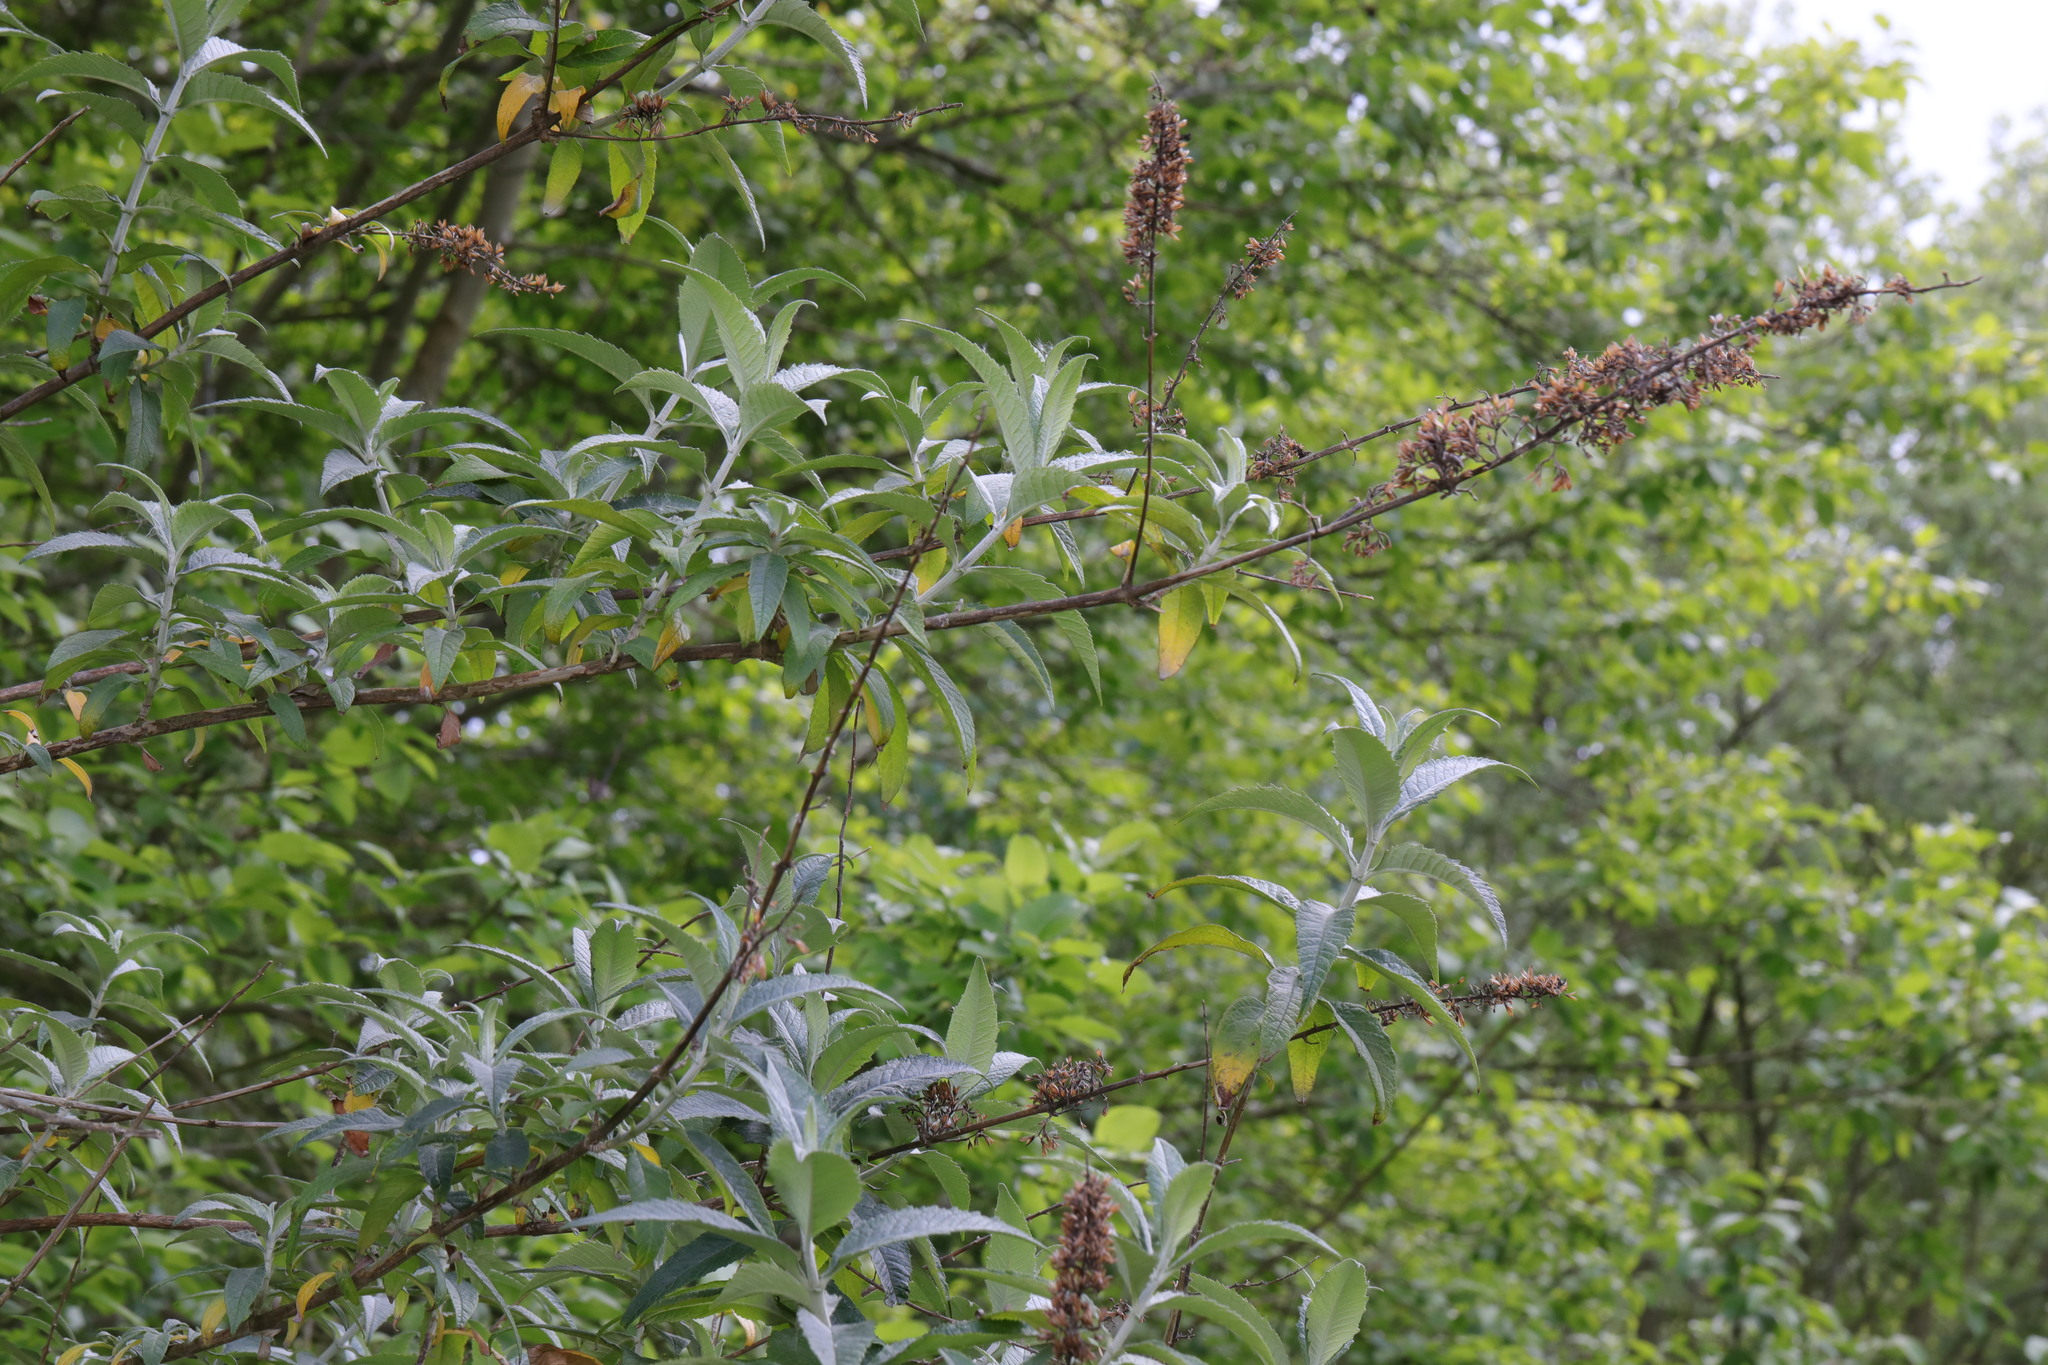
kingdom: Plantae
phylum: Tracheophyta
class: Magnoliopsida
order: Lamiales
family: Scrophulariaceae
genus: Buddleja
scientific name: Buddleja davidii
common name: Butterfly-bush
